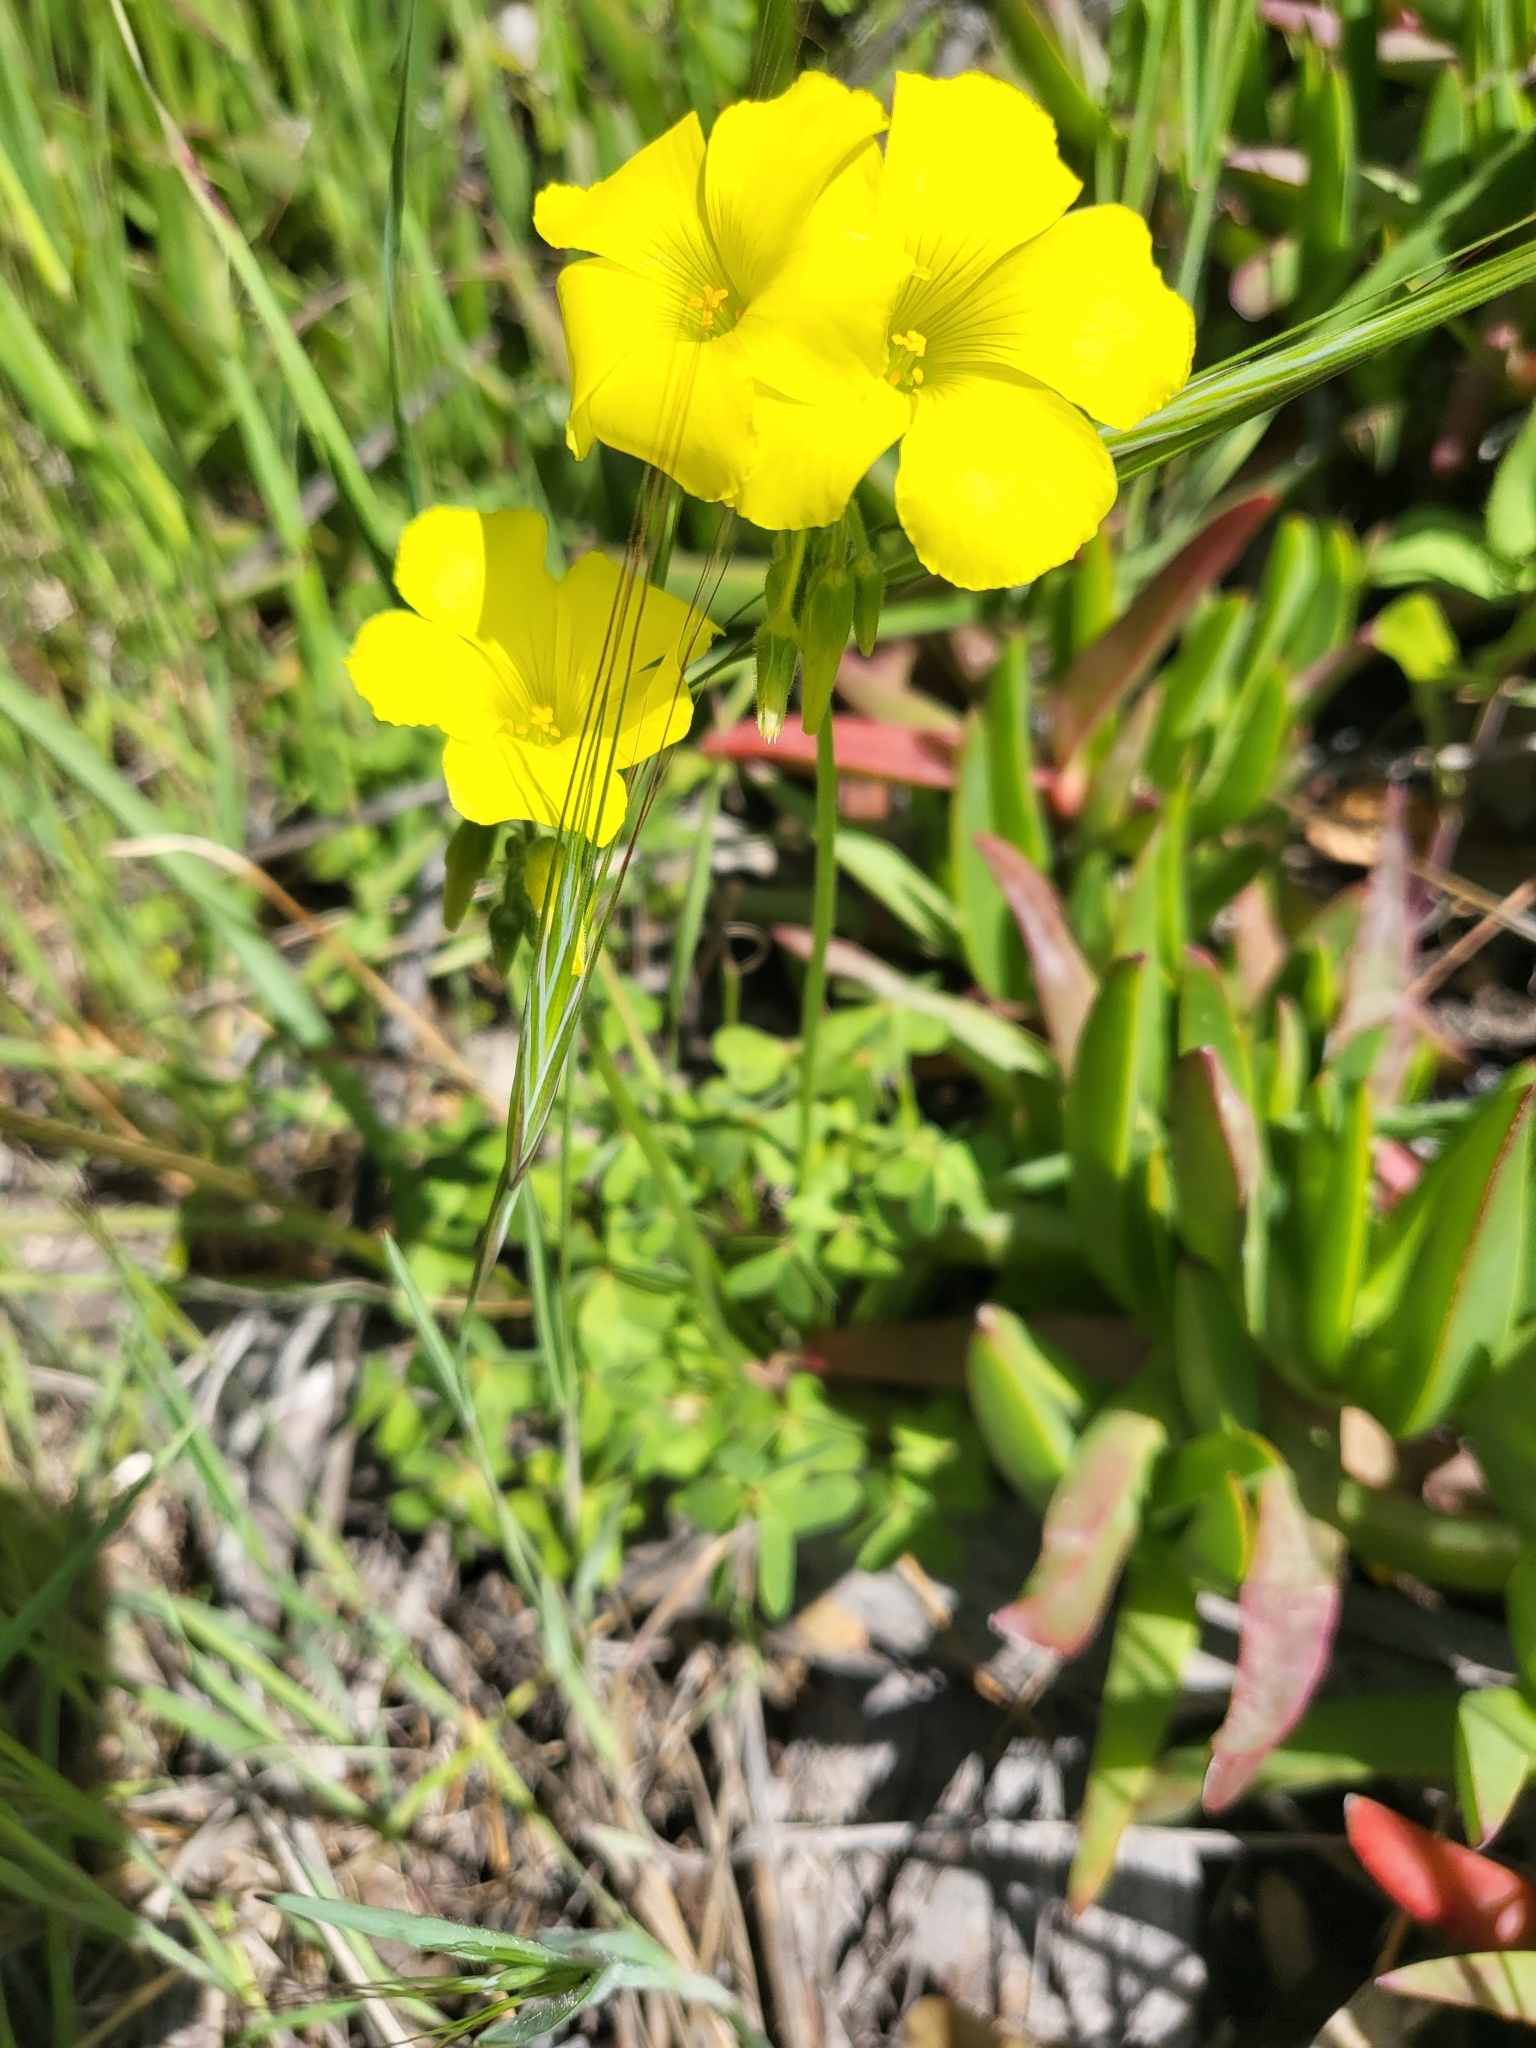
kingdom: Plantae
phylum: Tracheophyta
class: Magnoliopsida
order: Oxalidales
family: Oxalidaceae
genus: Oxalis
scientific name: Oxalis pes-caprae
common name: Bermuda-buttercup
